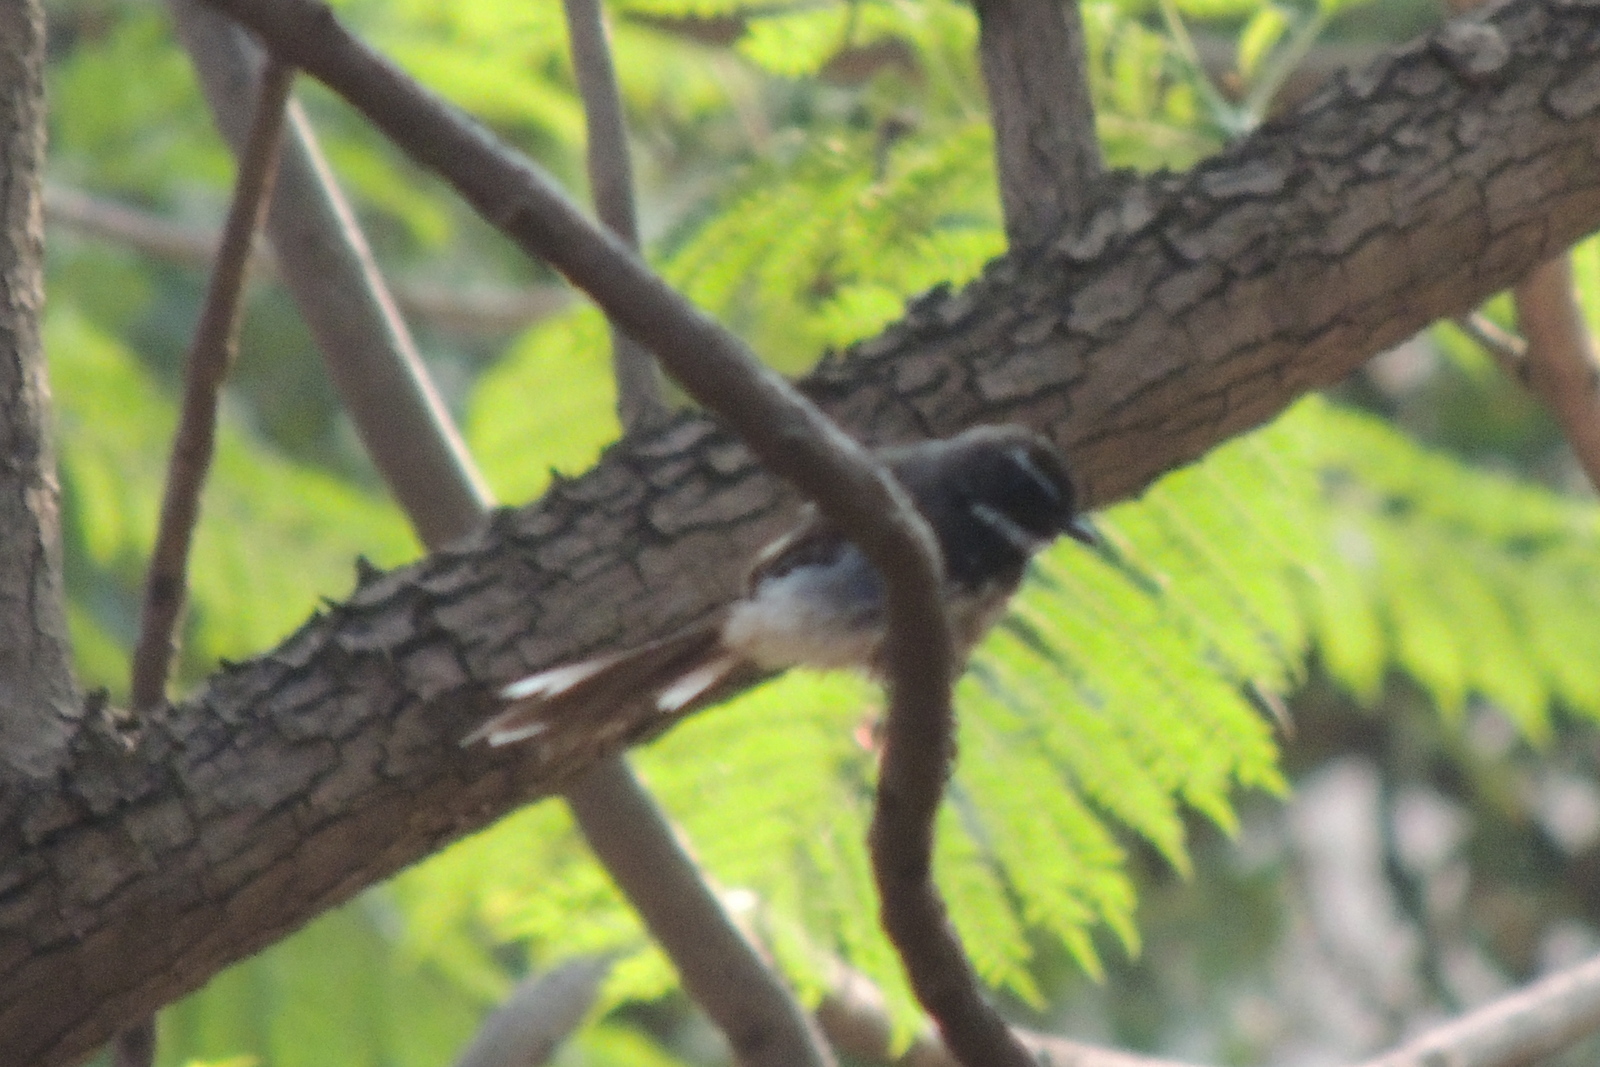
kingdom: Animalia
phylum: Chordata
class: Aves
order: Passeriformes
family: Rhipiduridae
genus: Rhipidura
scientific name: Rhipidura albogularis
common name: White-spotted fantail
